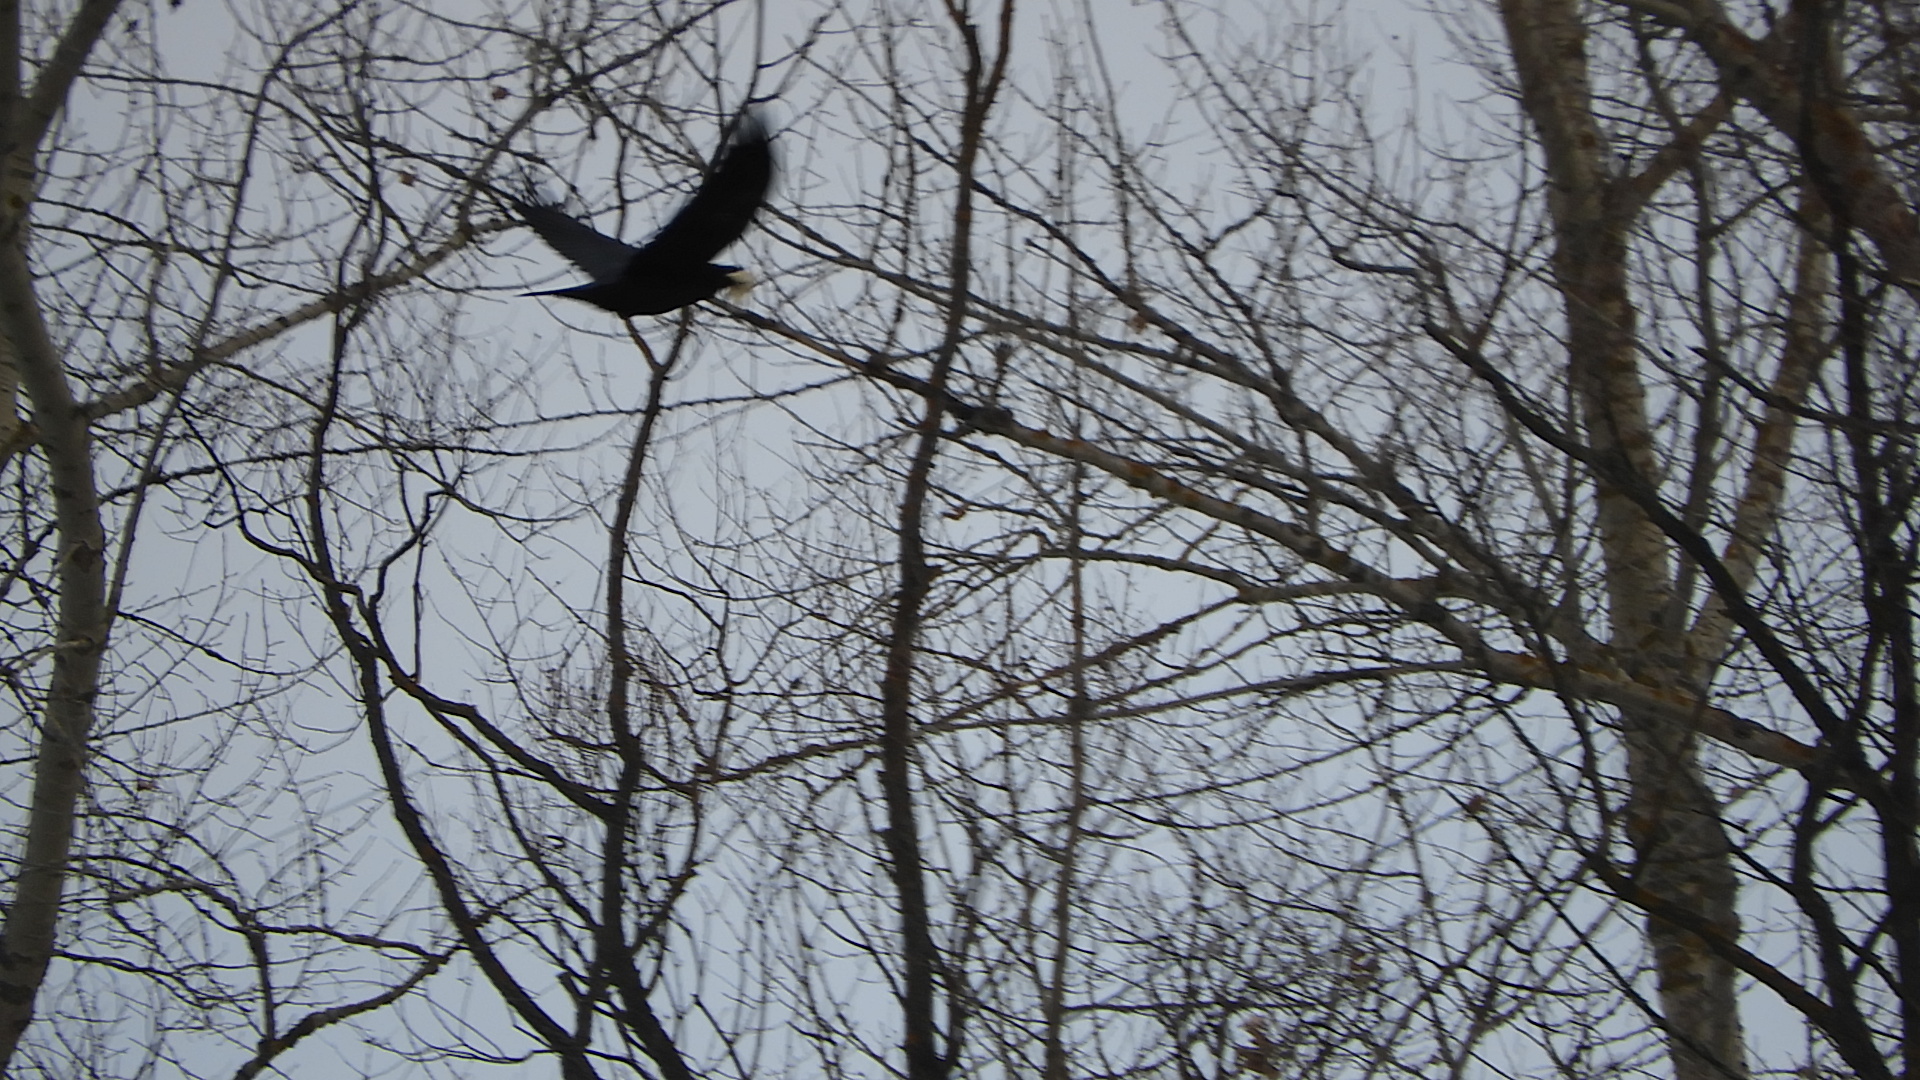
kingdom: Animalia
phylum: Chordata
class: Aves
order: Passeriformes
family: Corvidae
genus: Corvus
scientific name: Corvus corax
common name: Common raven
